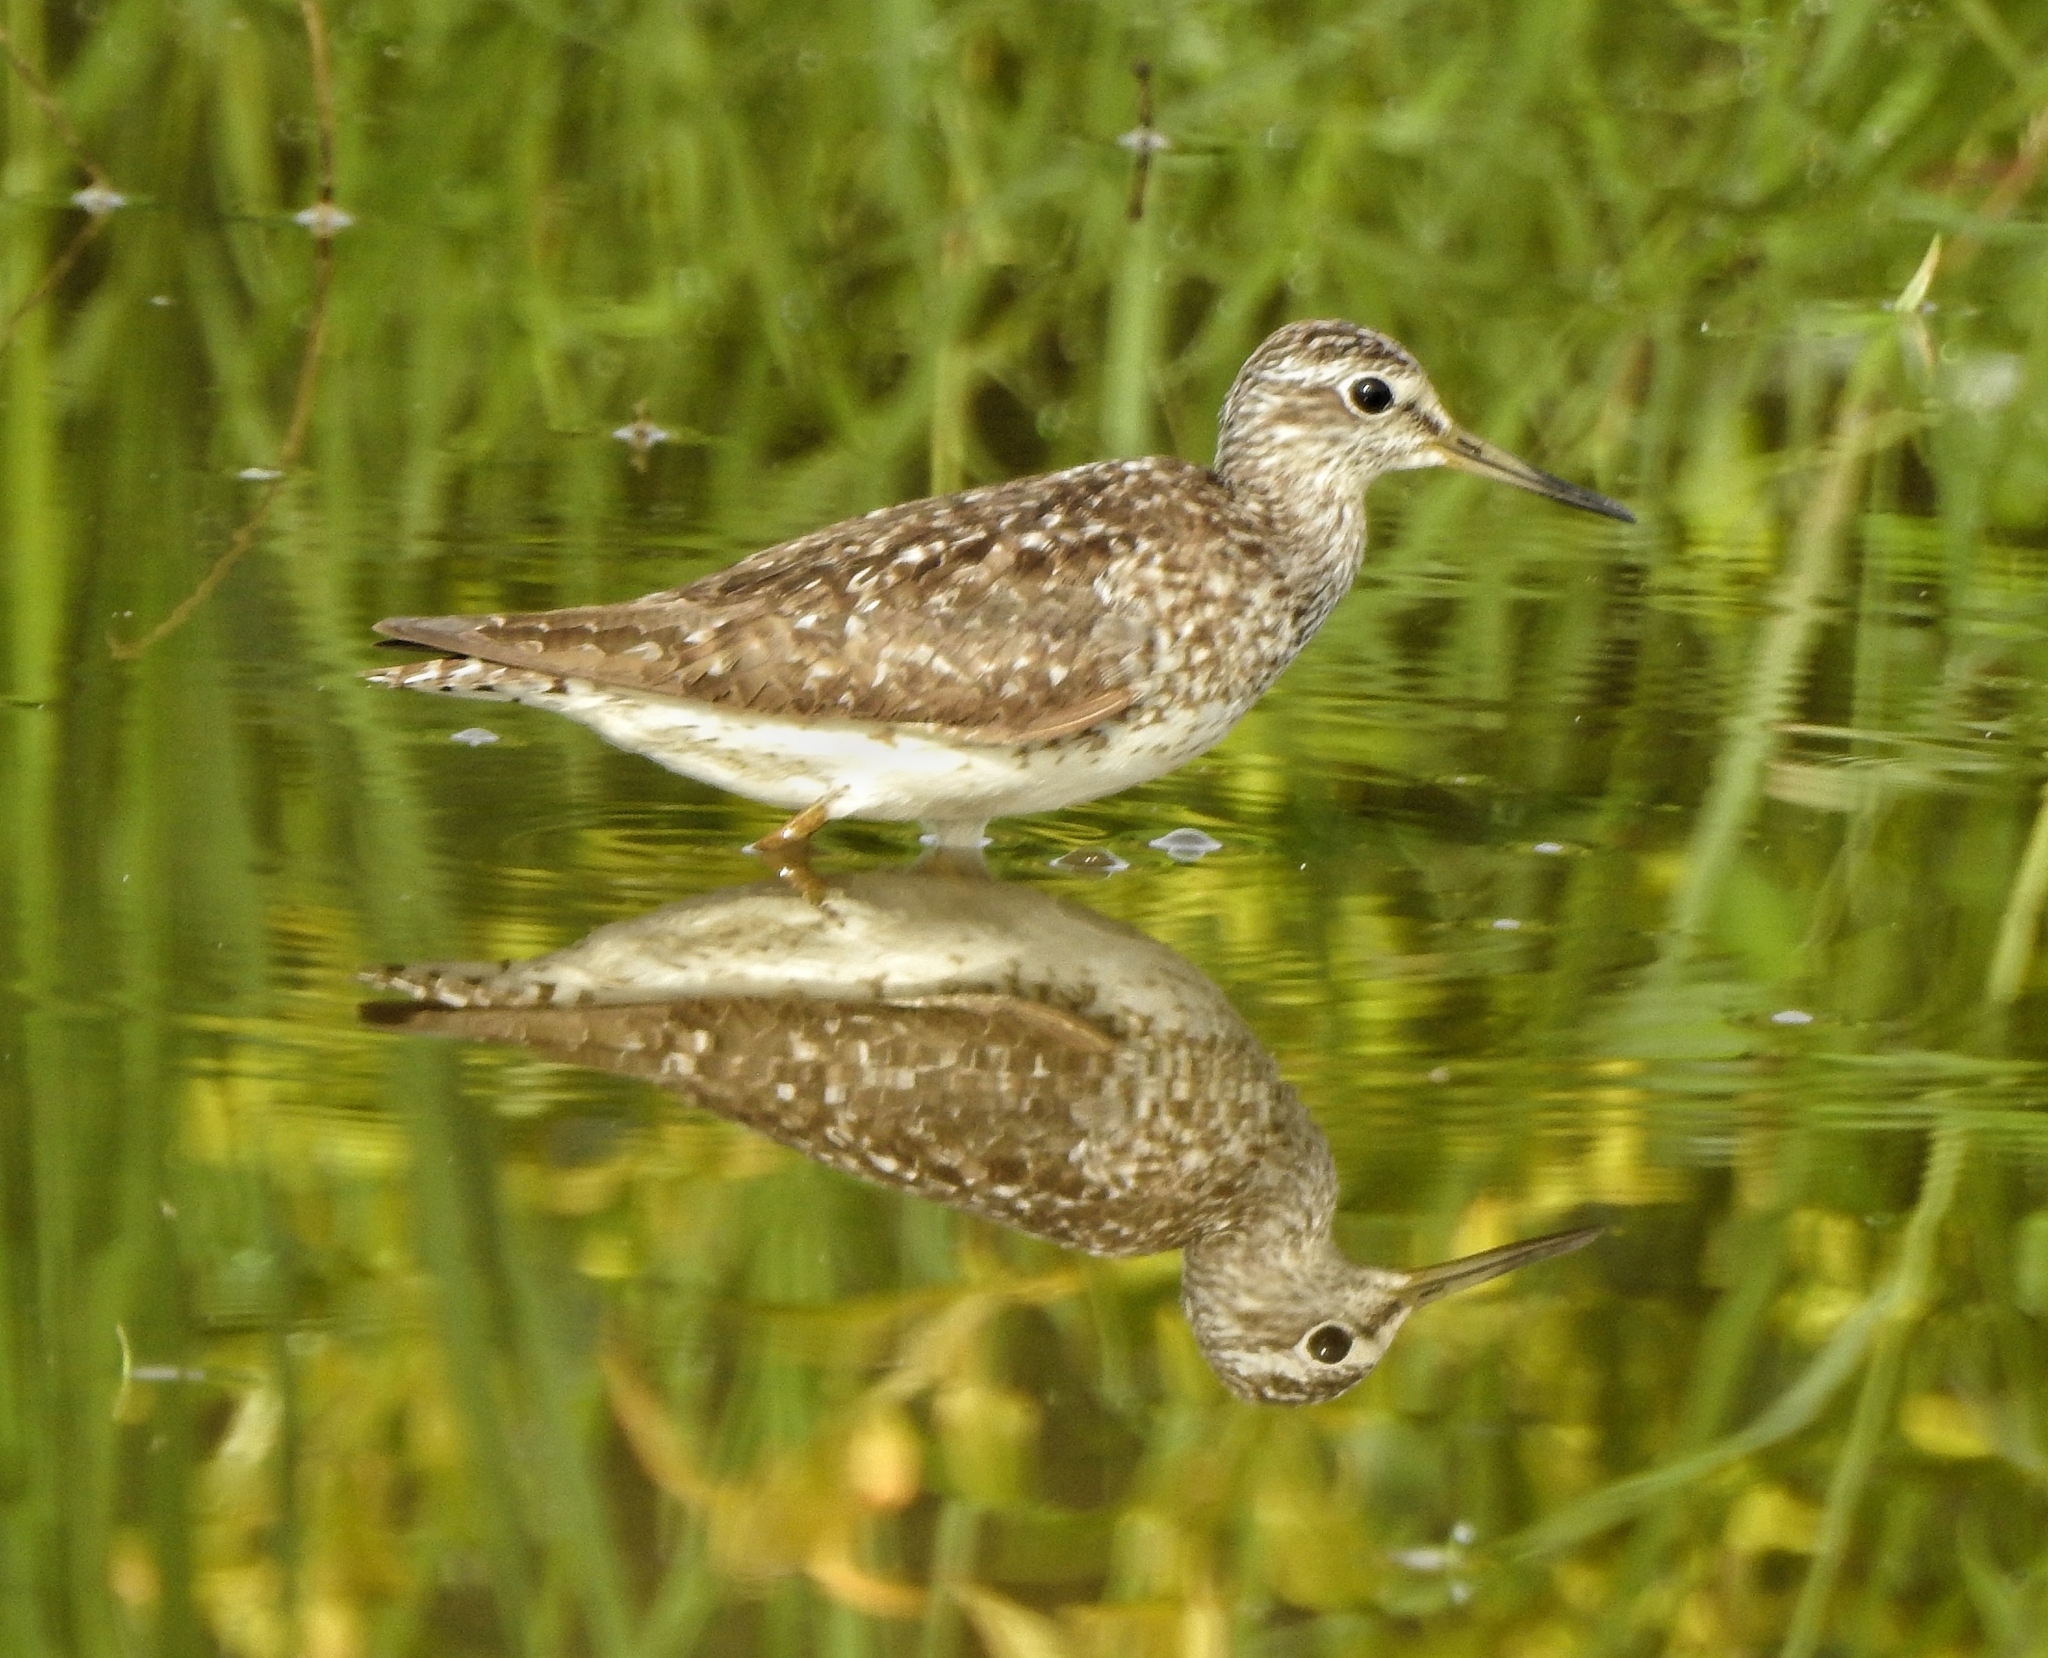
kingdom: Animalia
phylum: Chordata
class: Aves
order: Charadriiformes
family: Scolopacidae
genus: Tringa
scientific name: Tringa glareola
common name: Wood sandpiper
